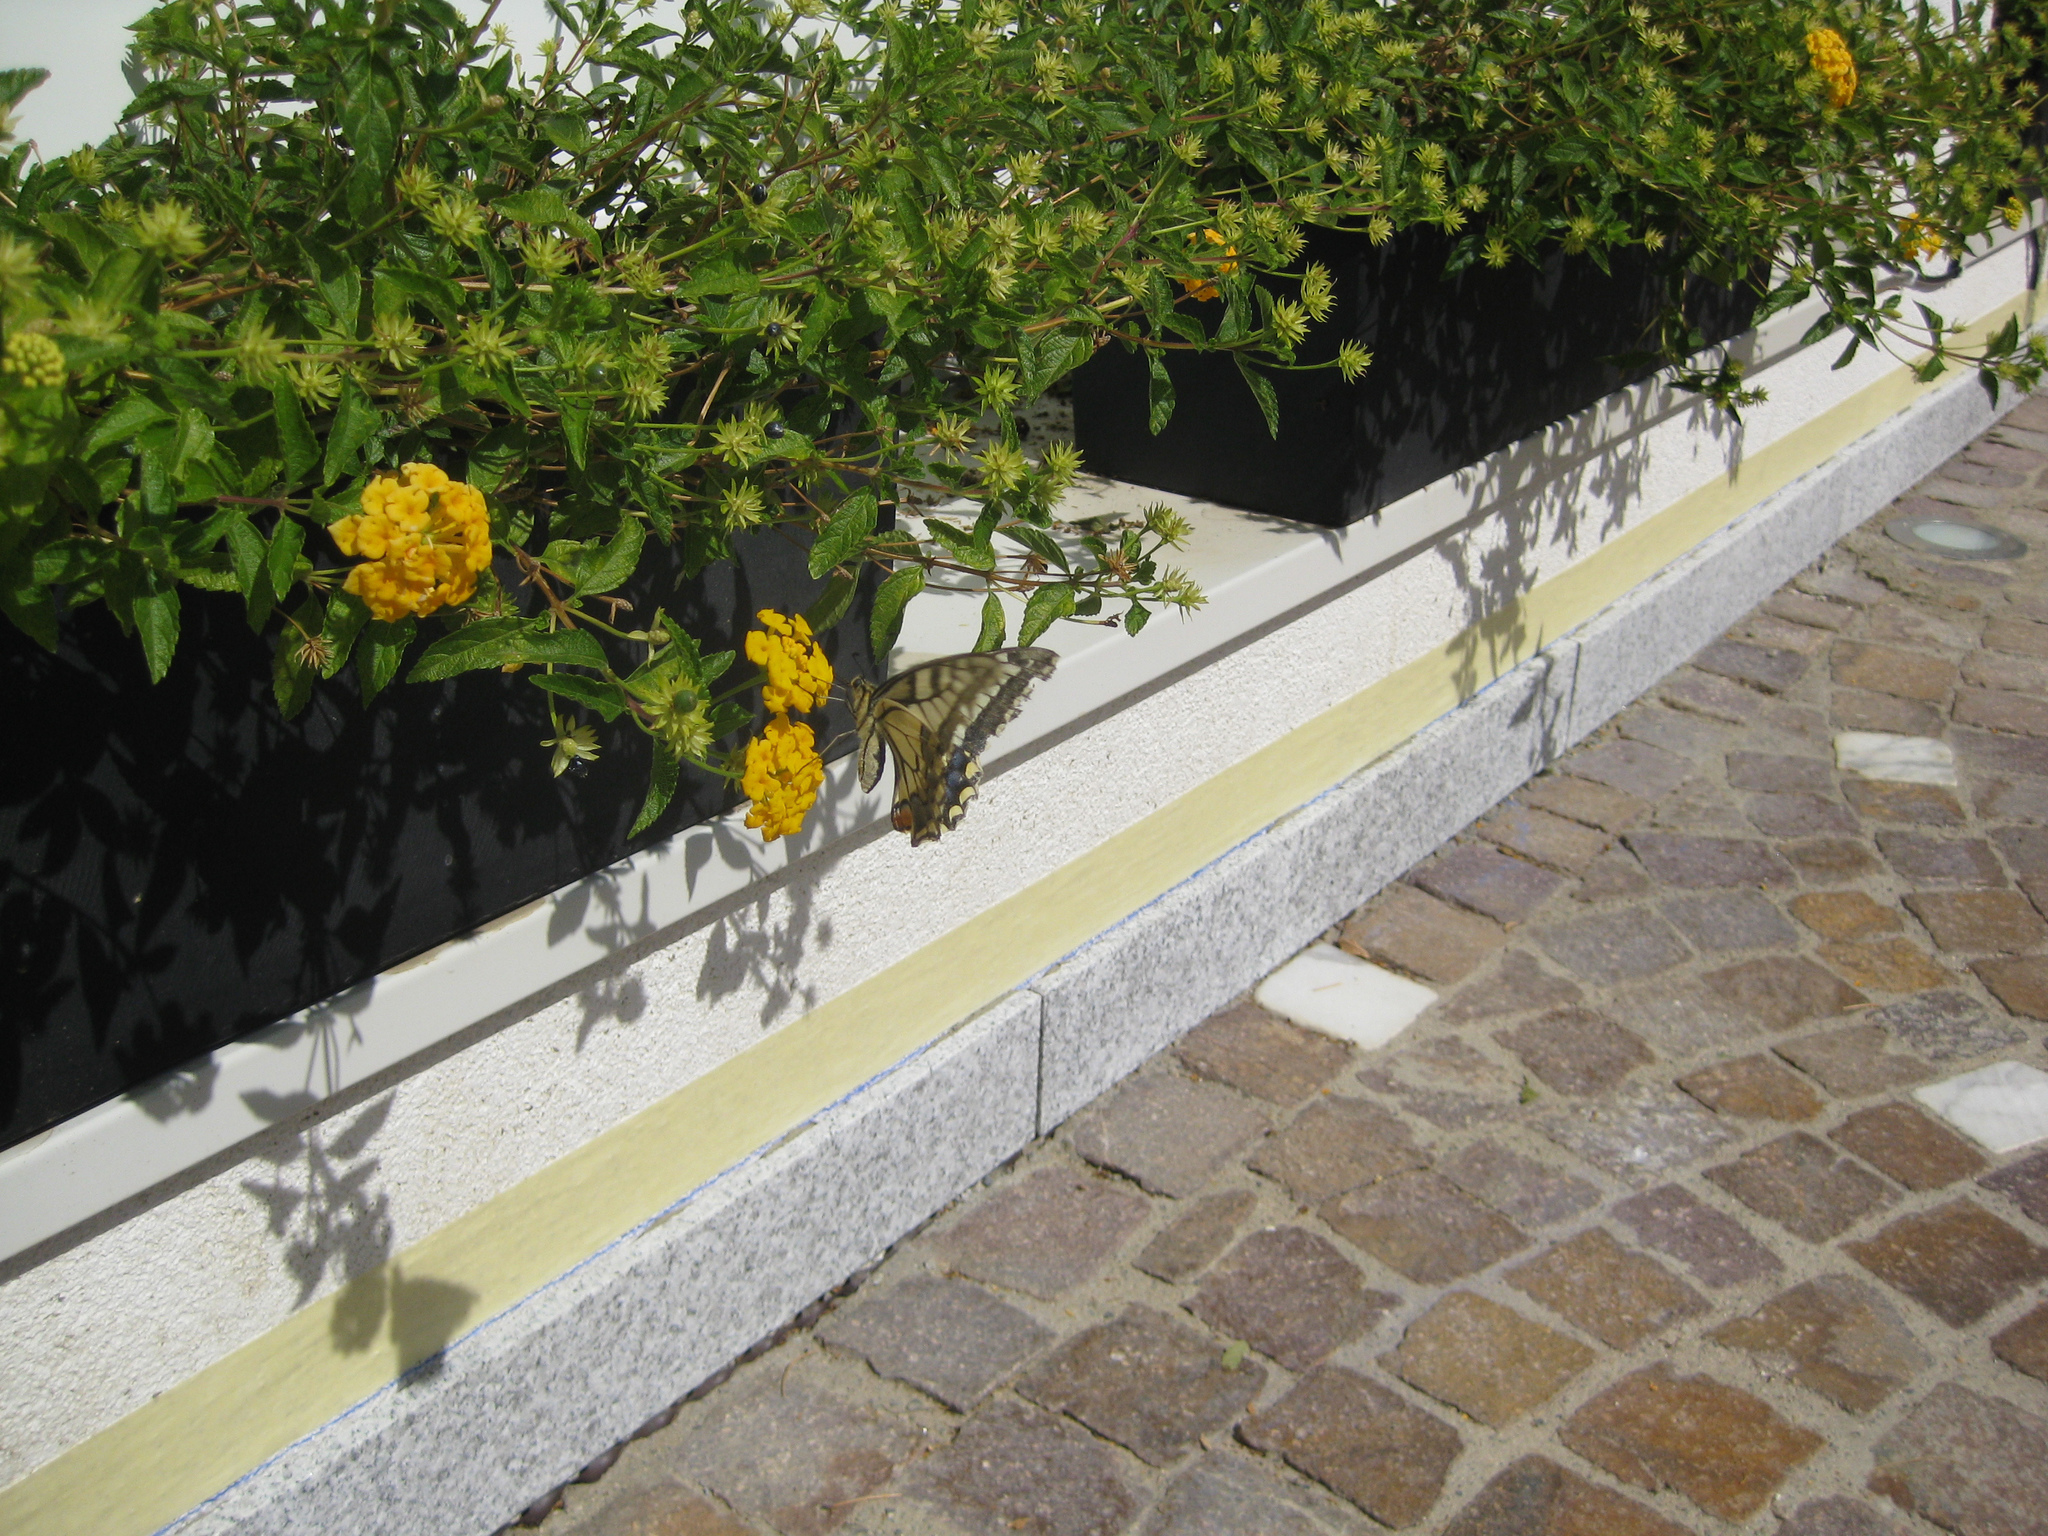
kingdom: Animalia
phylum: Arthropoda
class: Insecta
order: Lepidoptera
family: Papilionidae
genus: Papilio
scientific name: Papilio machaon
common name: Swallowtail
